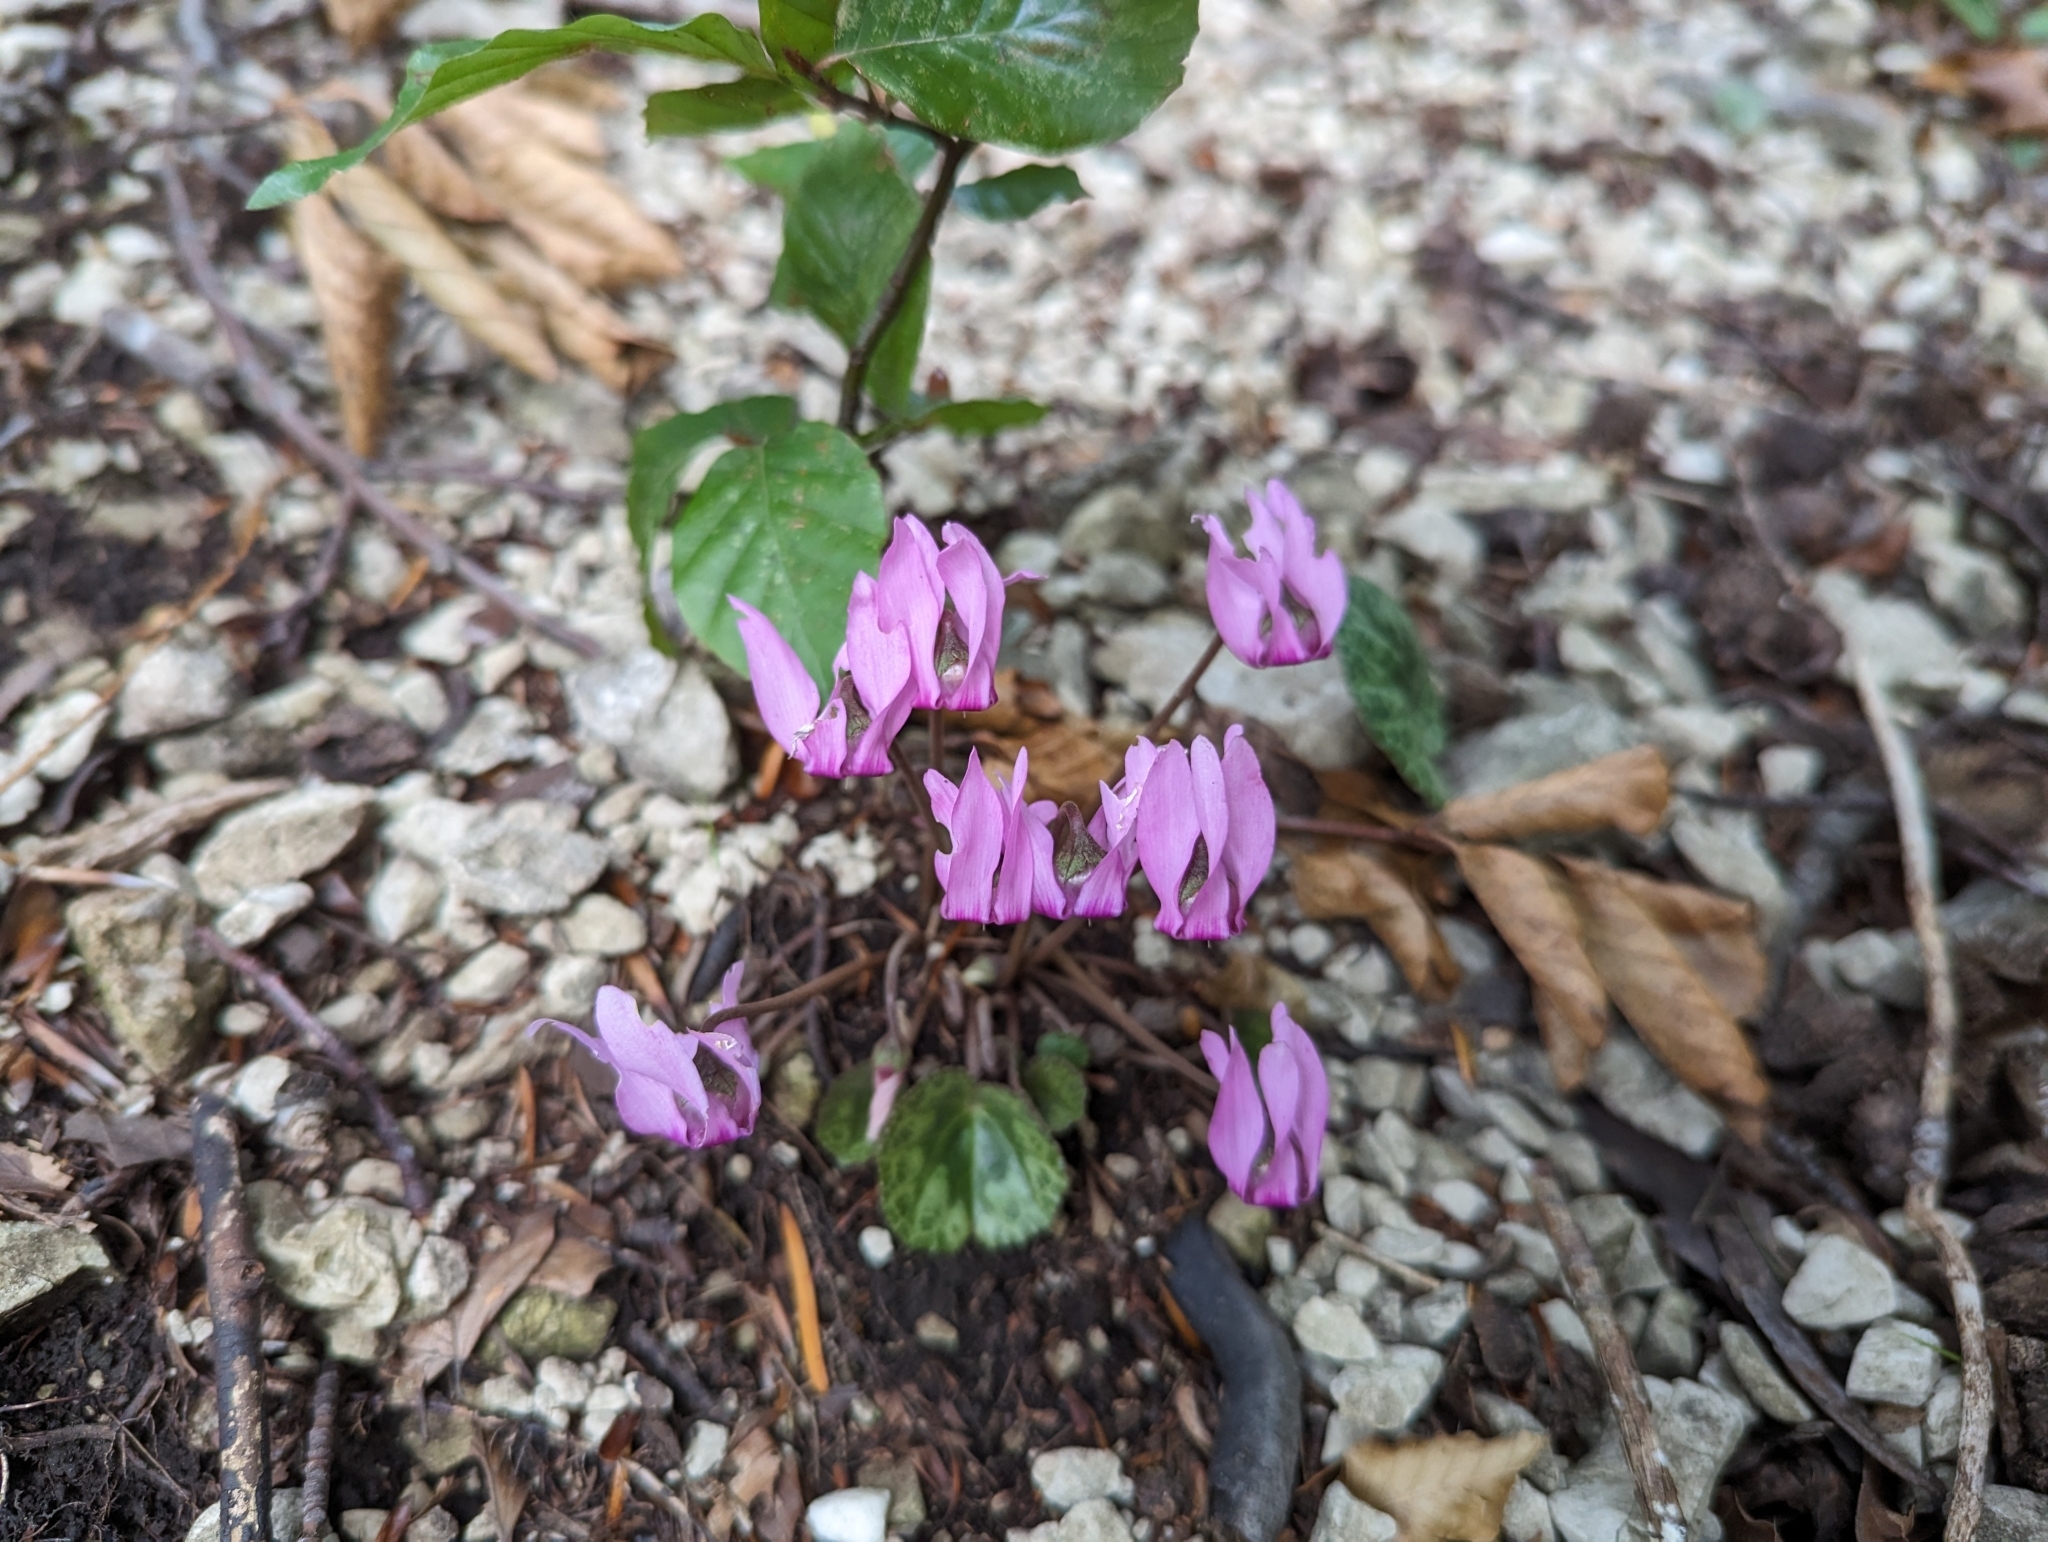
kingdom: Plantae
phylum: Tracheophyta
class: Magnoliopsida
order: Ericales
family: Primulaceae
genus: Cyclamen
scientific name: Cyclamen purpurascens
